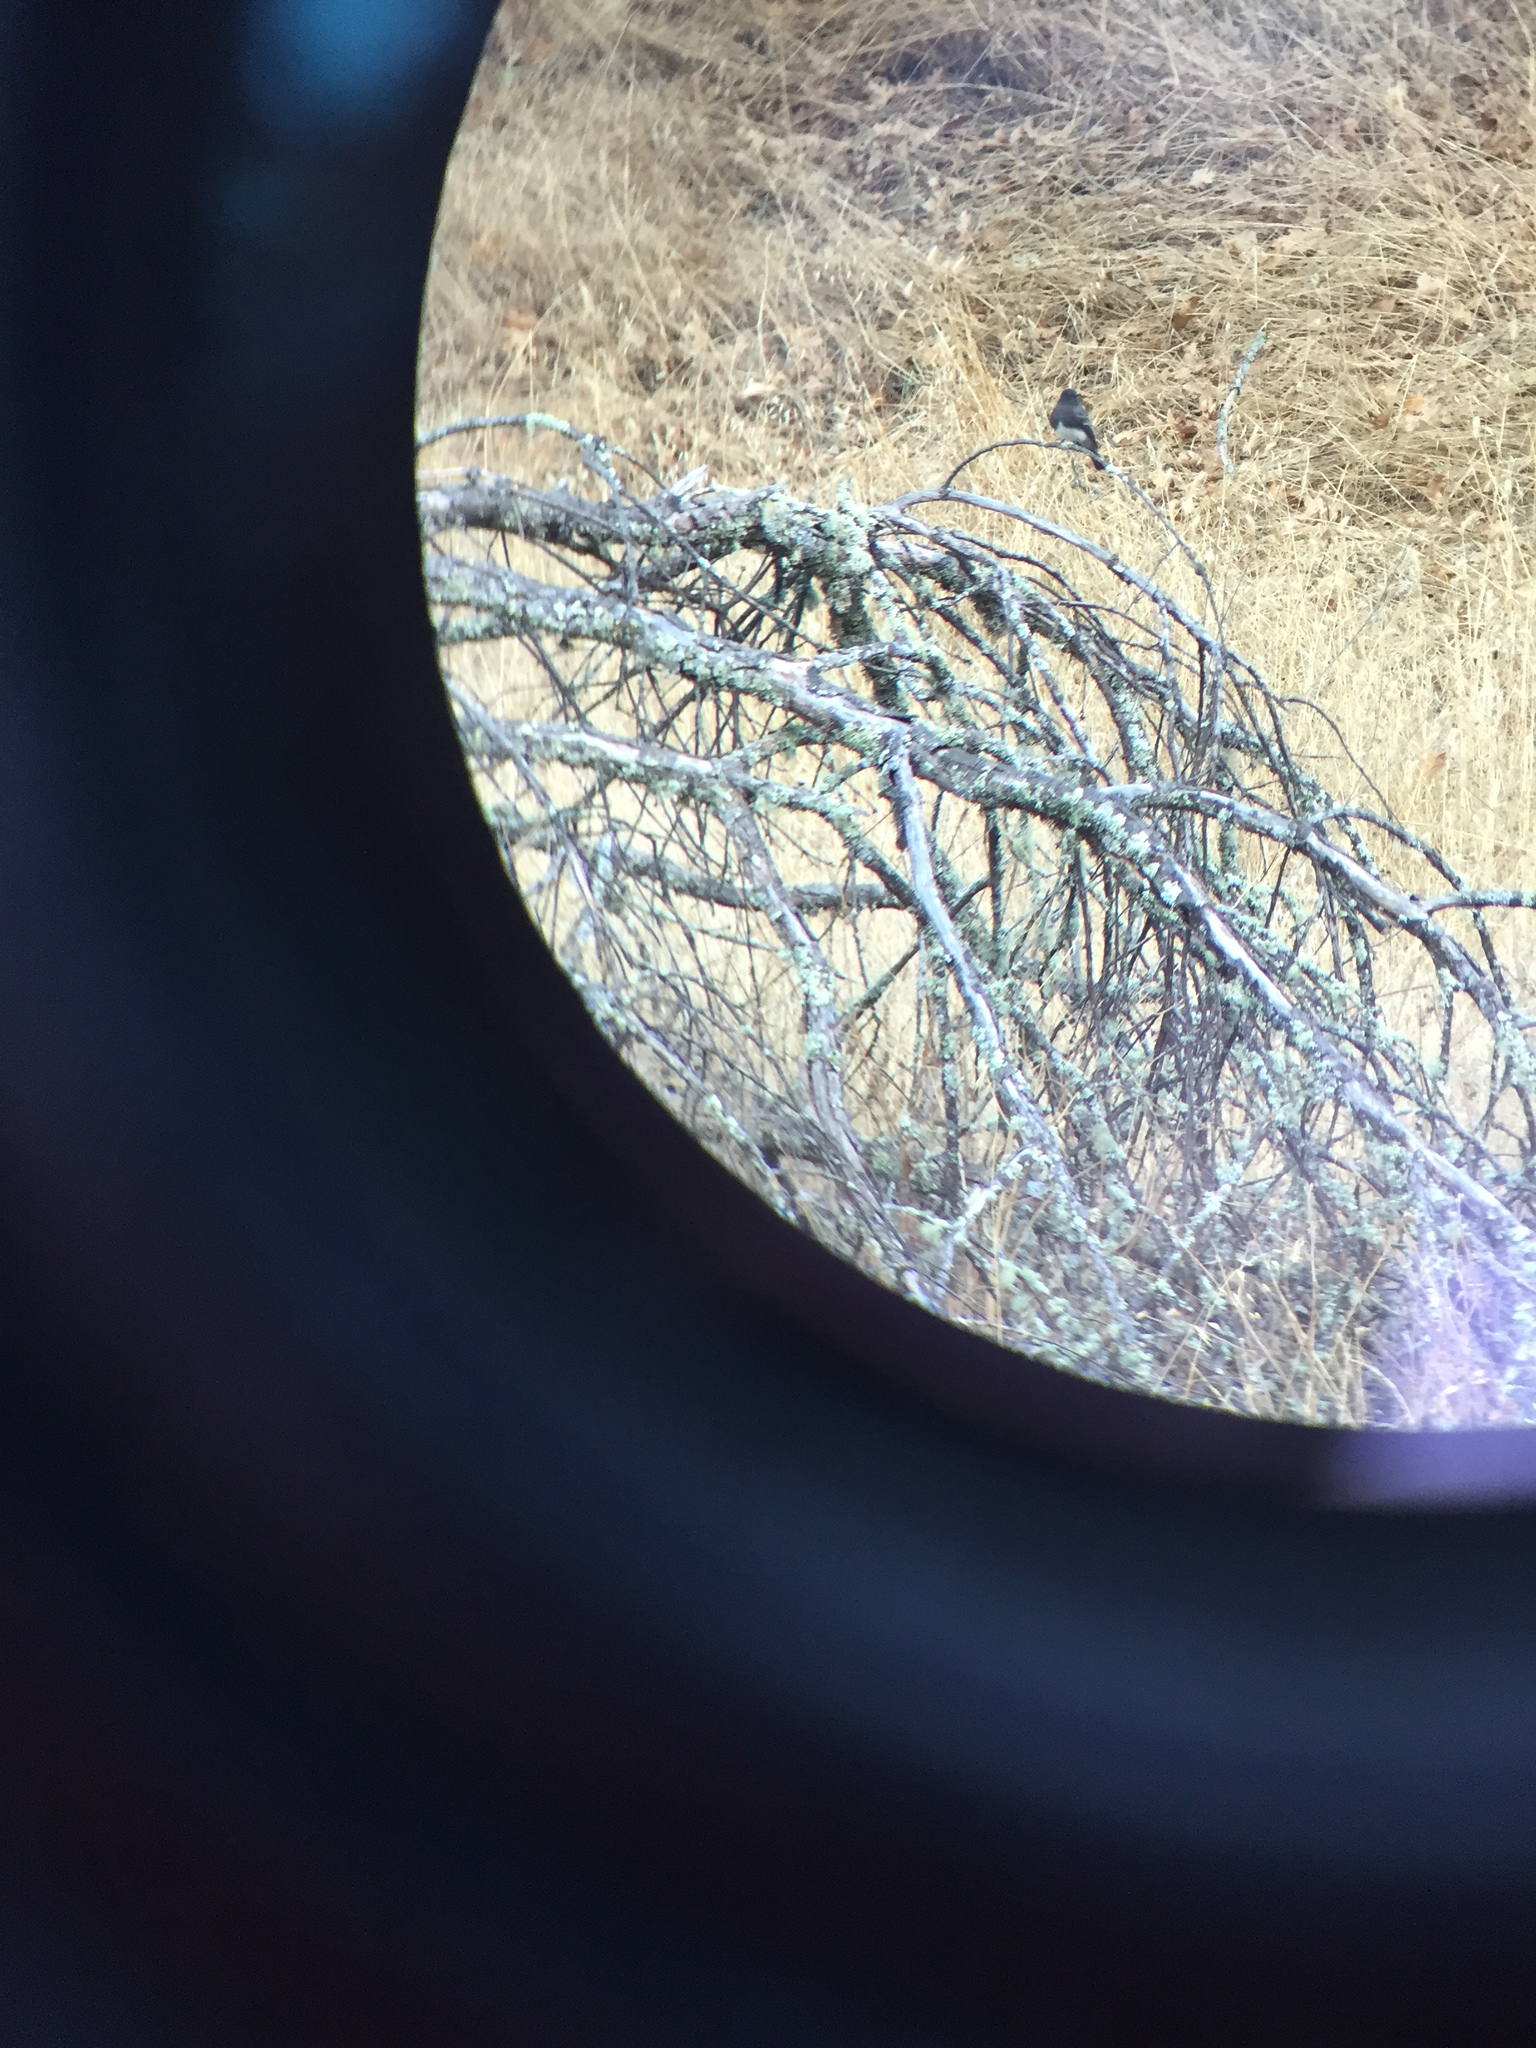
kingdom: Animalia
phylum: Chordata
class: Aves
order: Passeriformes
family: Tyrannidae
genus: Sayornis
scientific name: Sayornis nigricans
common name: Black phoebe
